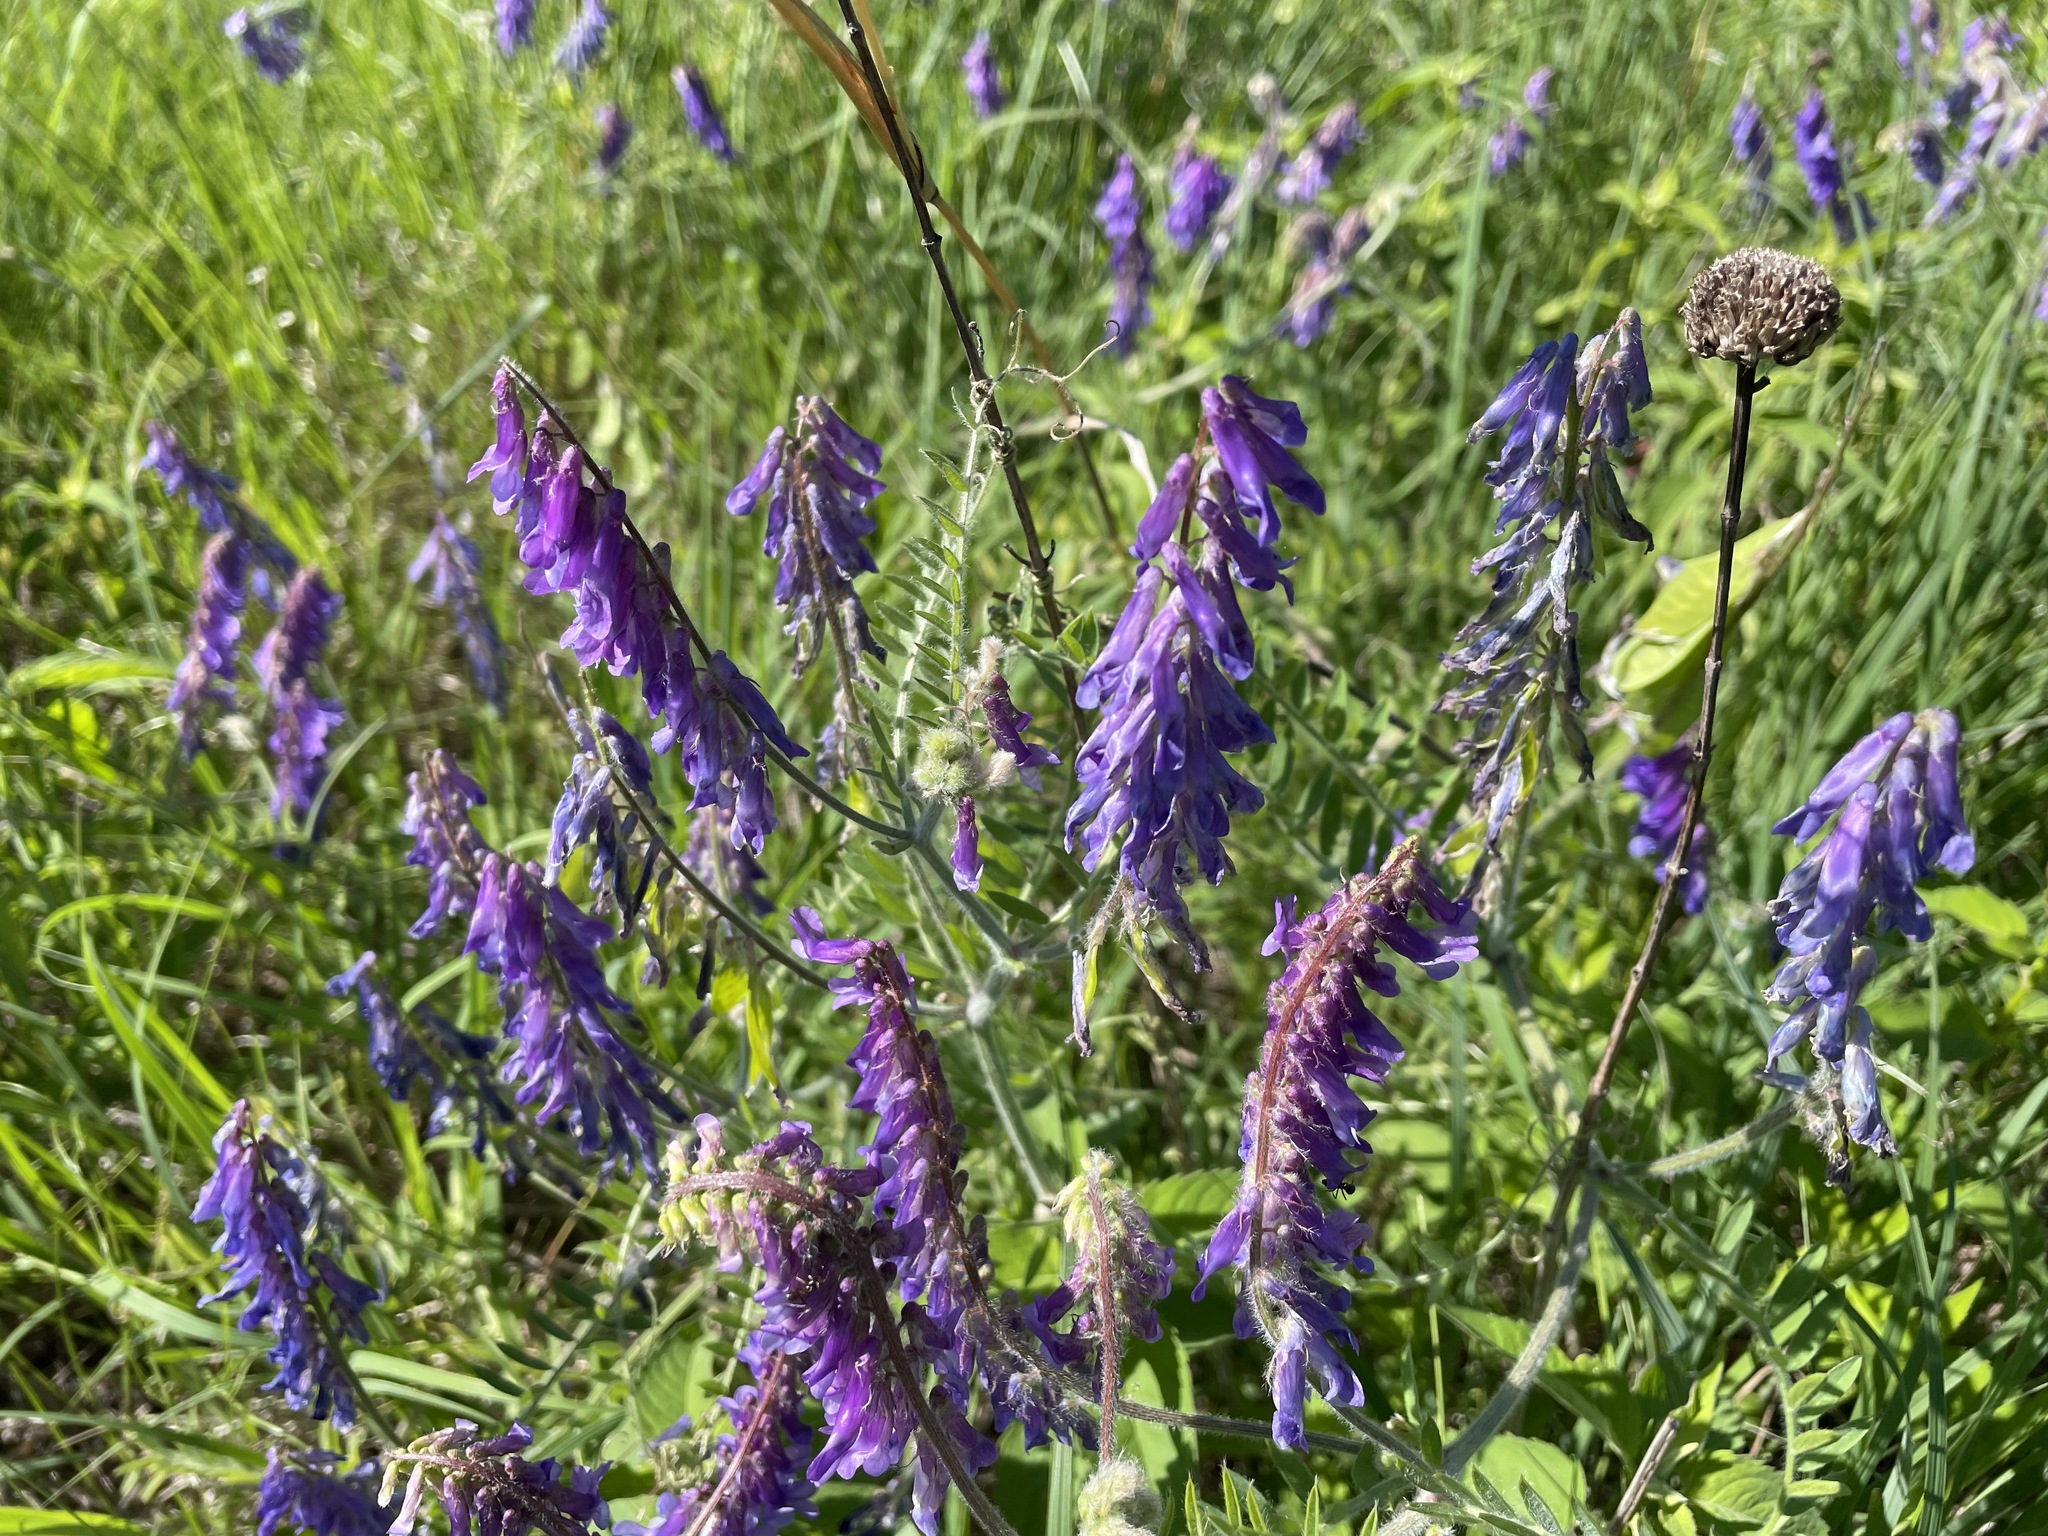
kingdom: Plantae
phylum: Tracheophyta
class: Magnoliopsida
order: Fabales
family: Fabaceae
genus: Vicia
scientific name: Vicia villosa
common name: Fodder vetch
